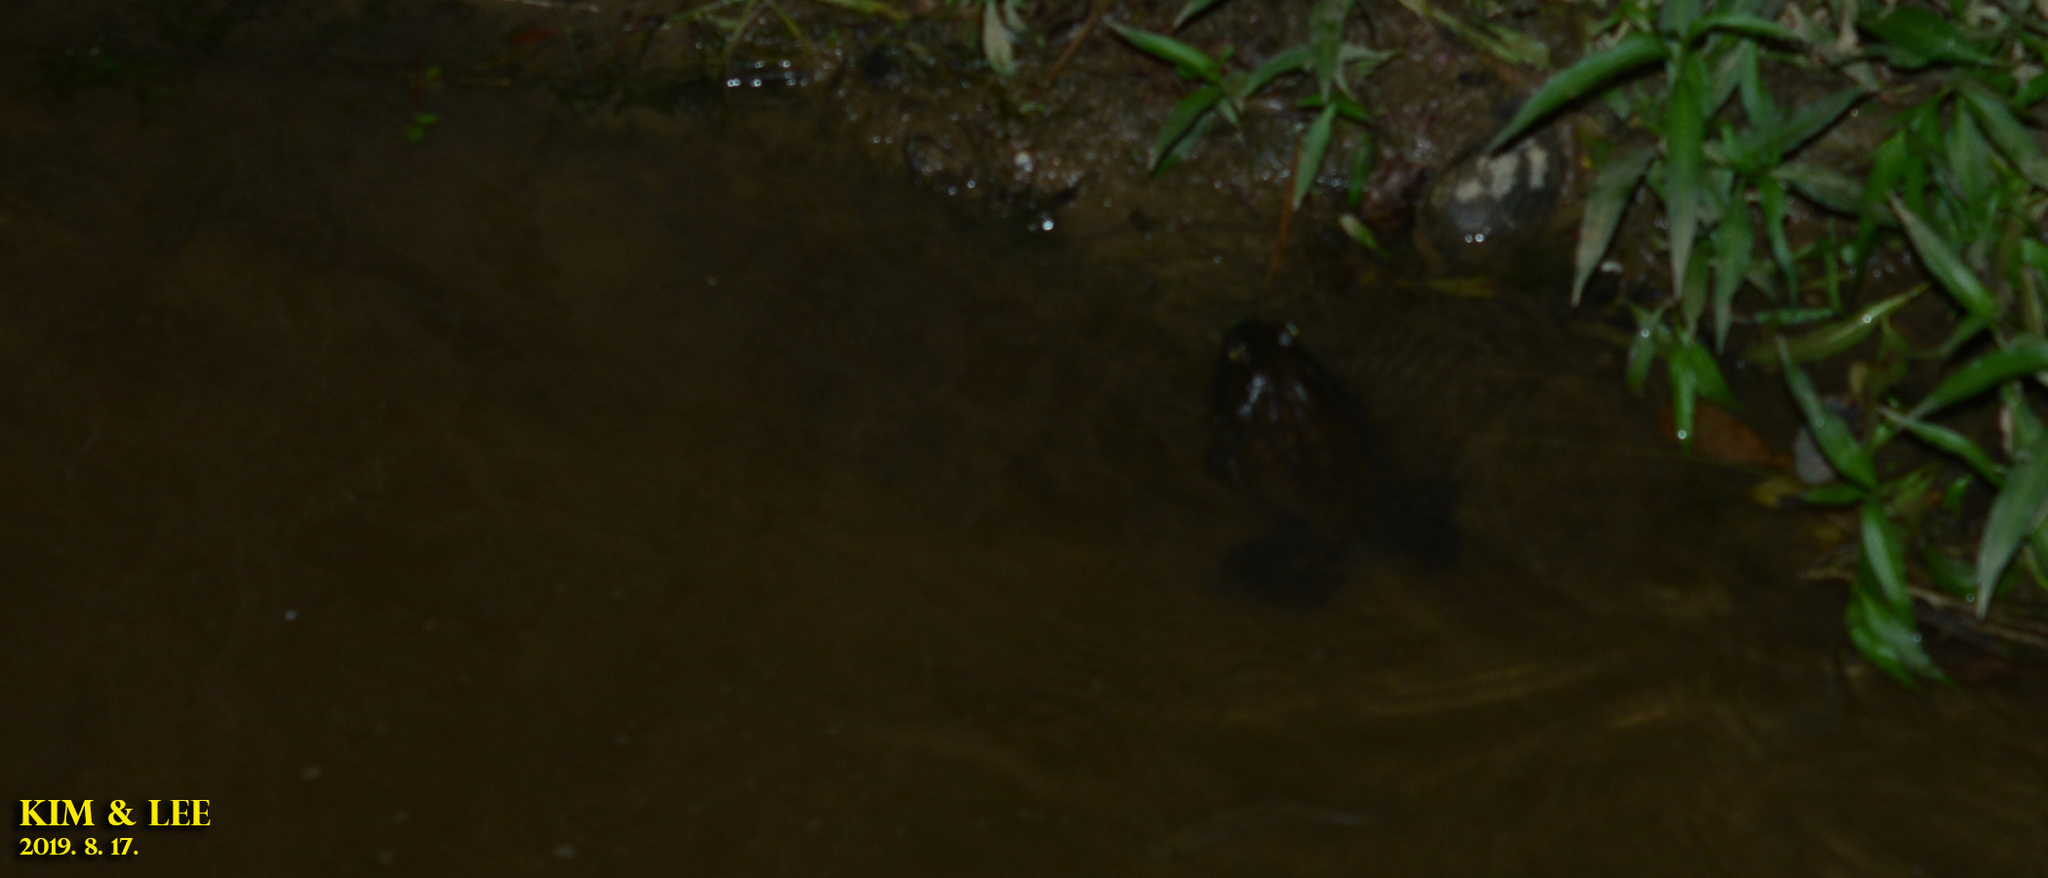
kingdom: Animalia
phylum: Chordata
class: Amphibia
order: Anura
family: Ranidae
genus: Lithobates
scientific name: Lithobates catesbeianus
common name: American bullfrog
